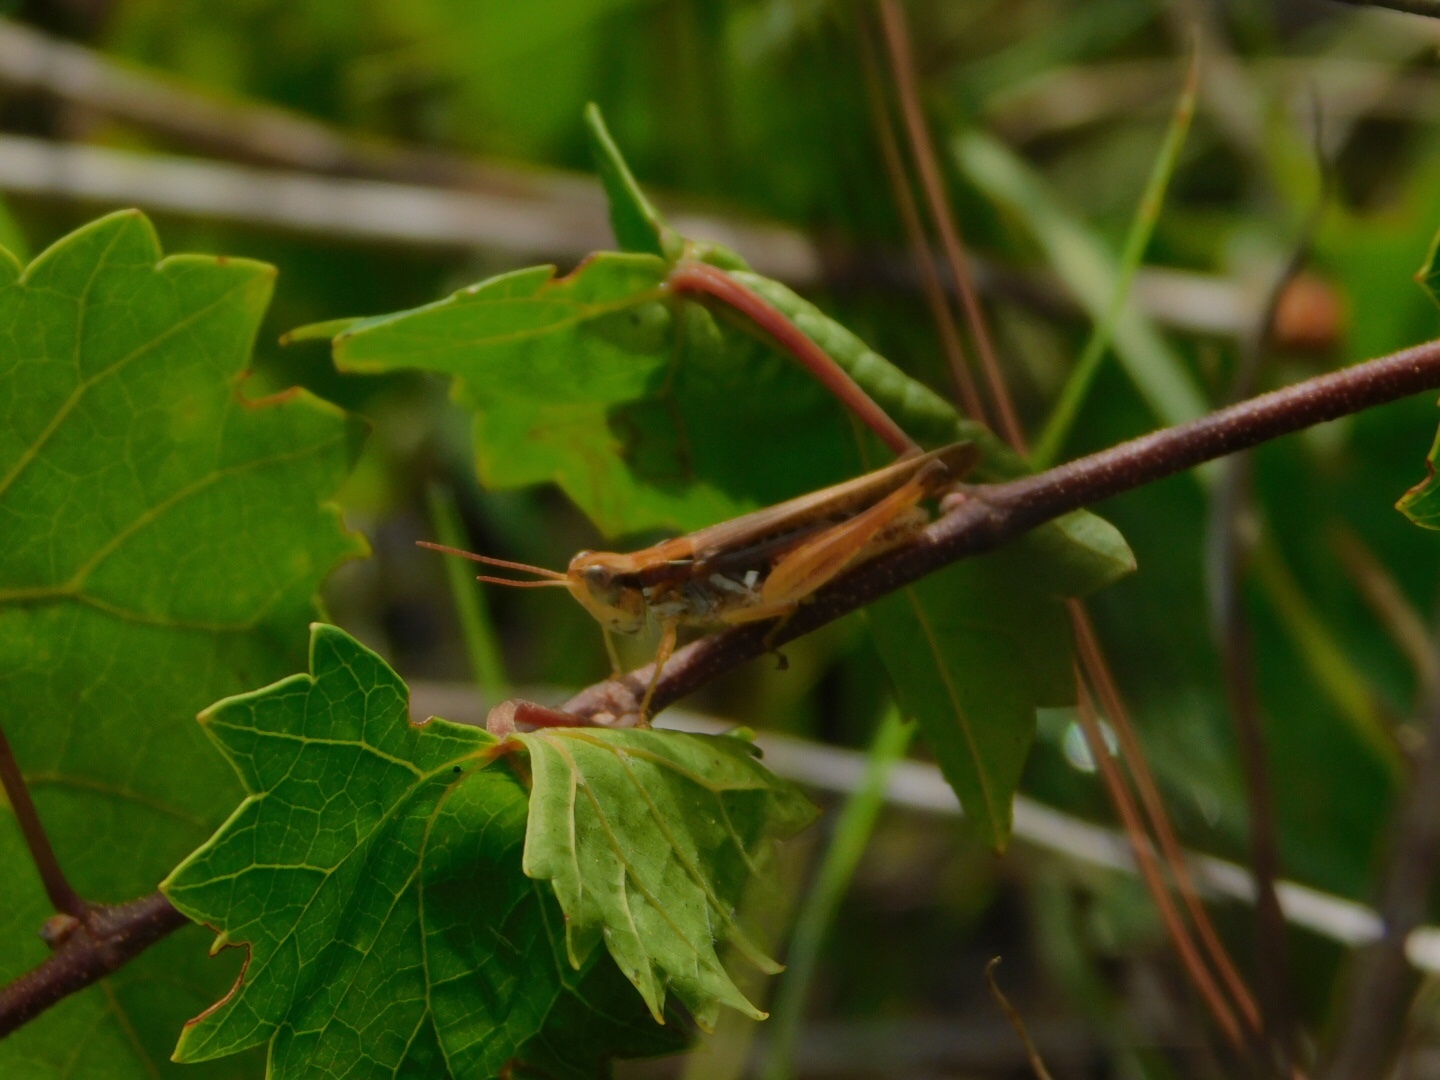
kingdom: Animalia
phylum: Arthropoda
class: Insecta
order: Orthoptera
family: Acrididae
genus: Orphulella
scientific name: Orphulella pelidna
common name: Spotted-wing grasshopper
